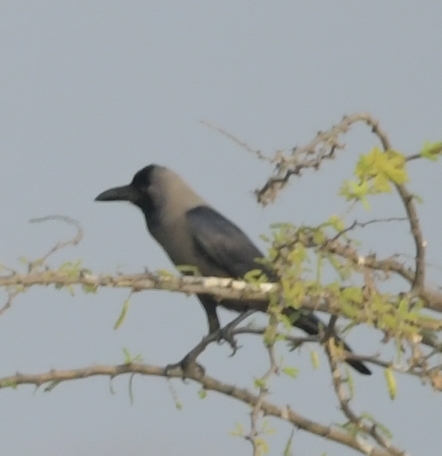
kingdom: Animalia
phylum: Chordata
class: Aves
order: Passeriformes
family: Corvidae
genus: Corvus
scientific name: Corvus splendens
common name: House crow
